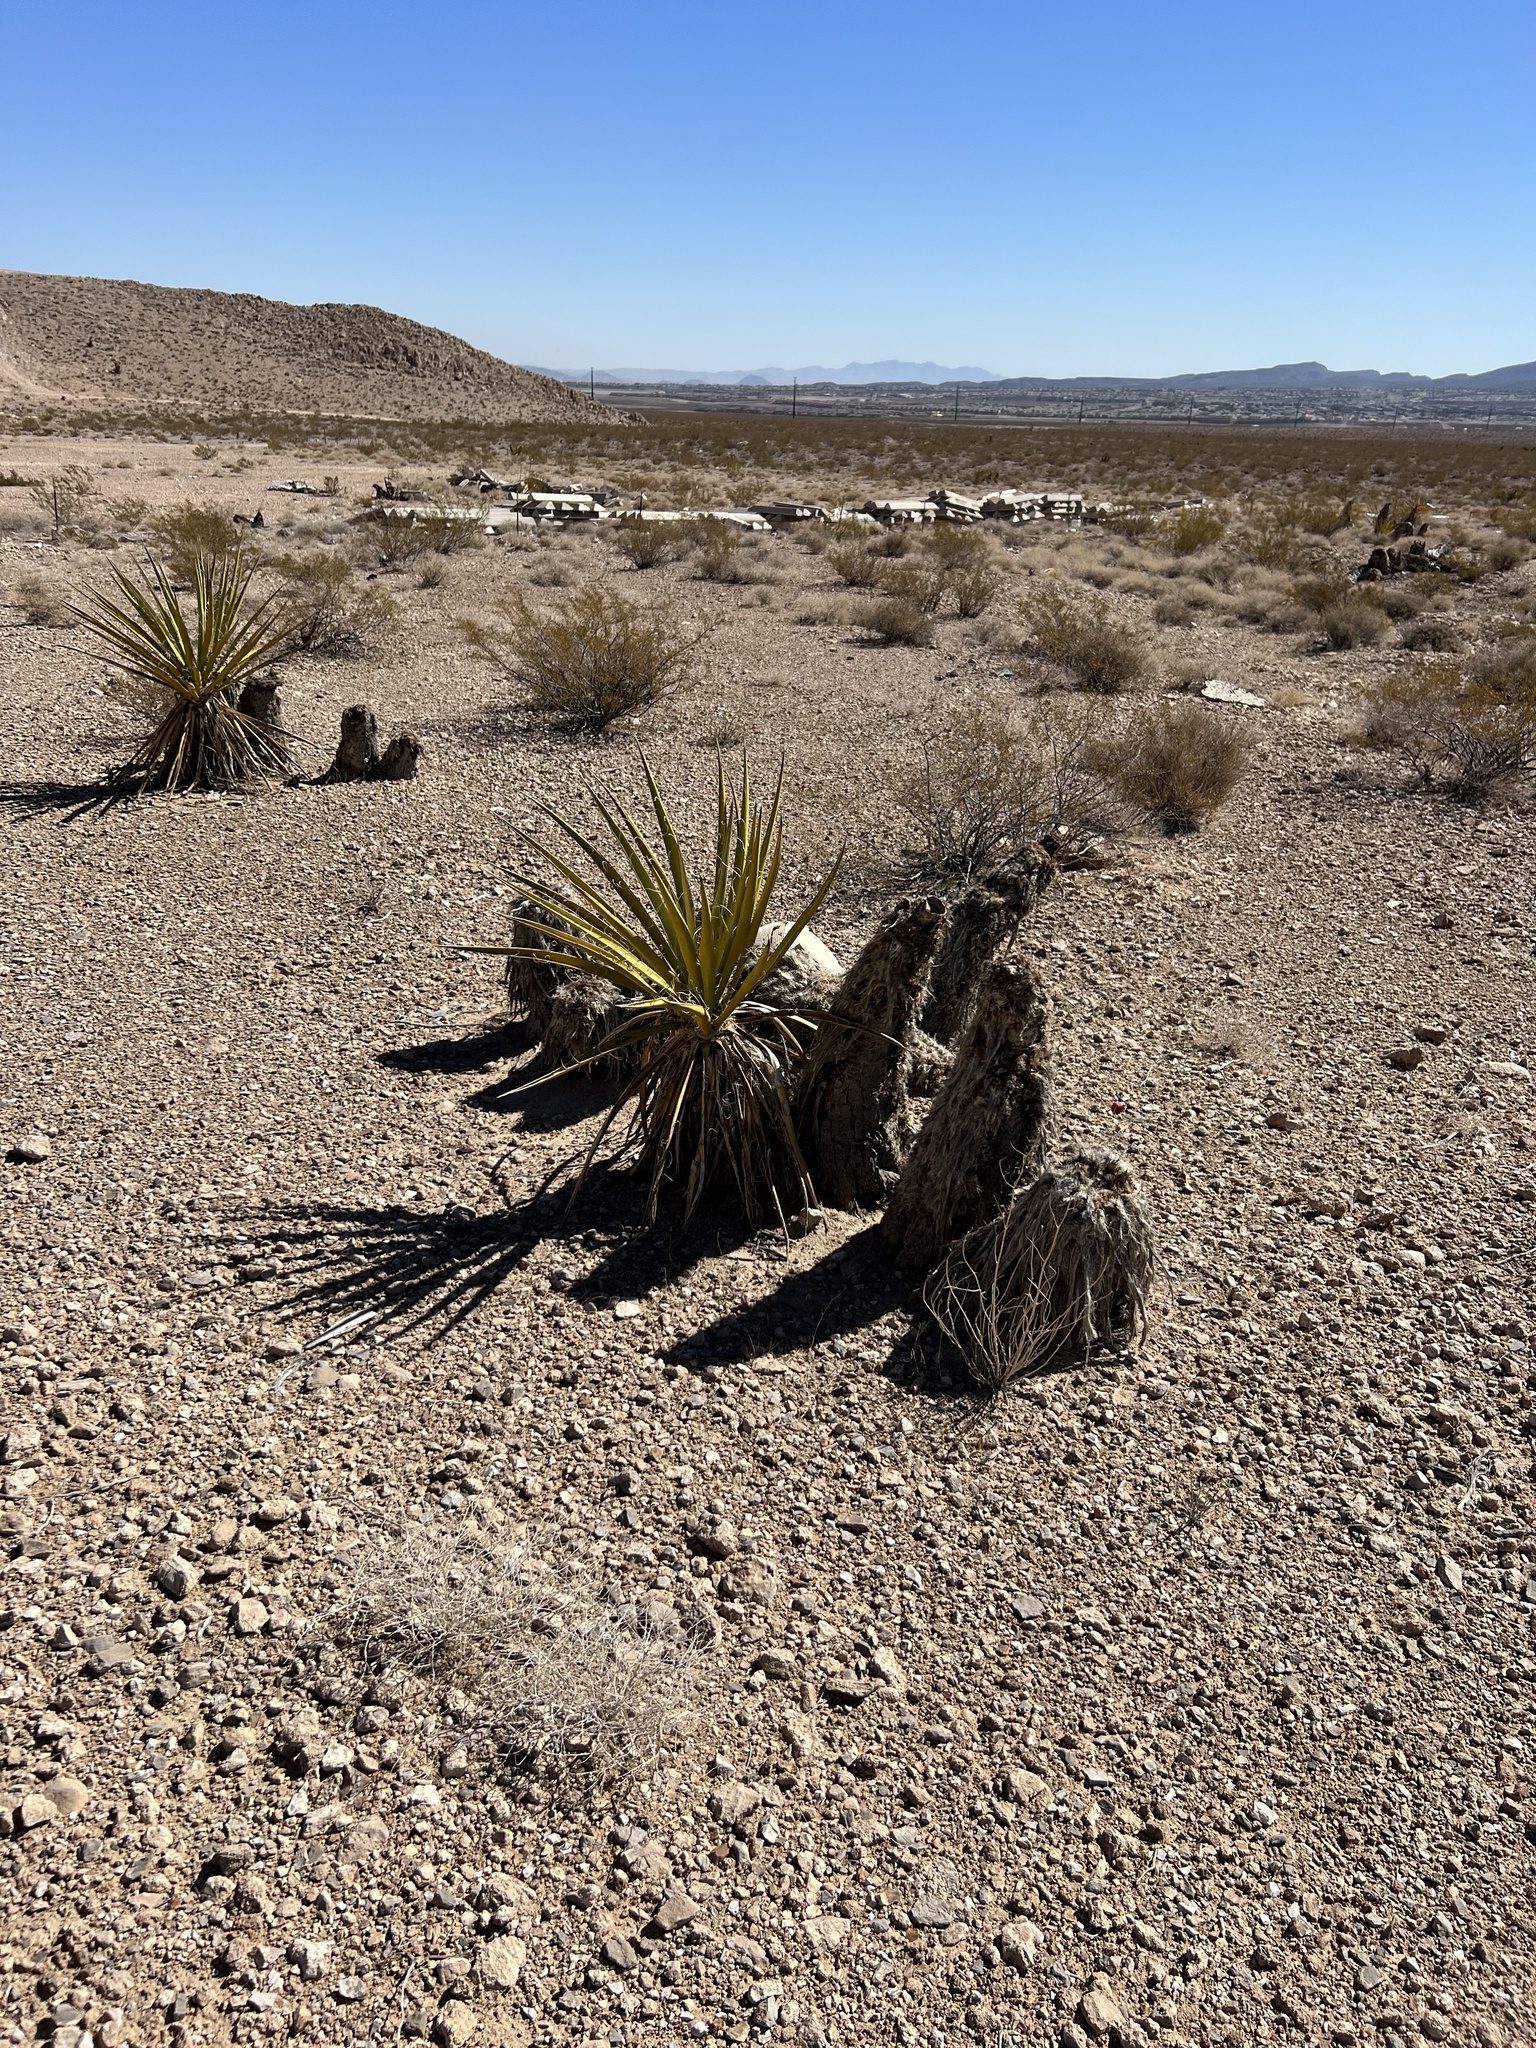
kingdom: Plantae
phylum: Tracheophyta
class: Liliopsida
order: Asparagales
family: Asparagaceae
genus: Yucca
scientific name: Yucca schidigera
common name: Mojave yucca
